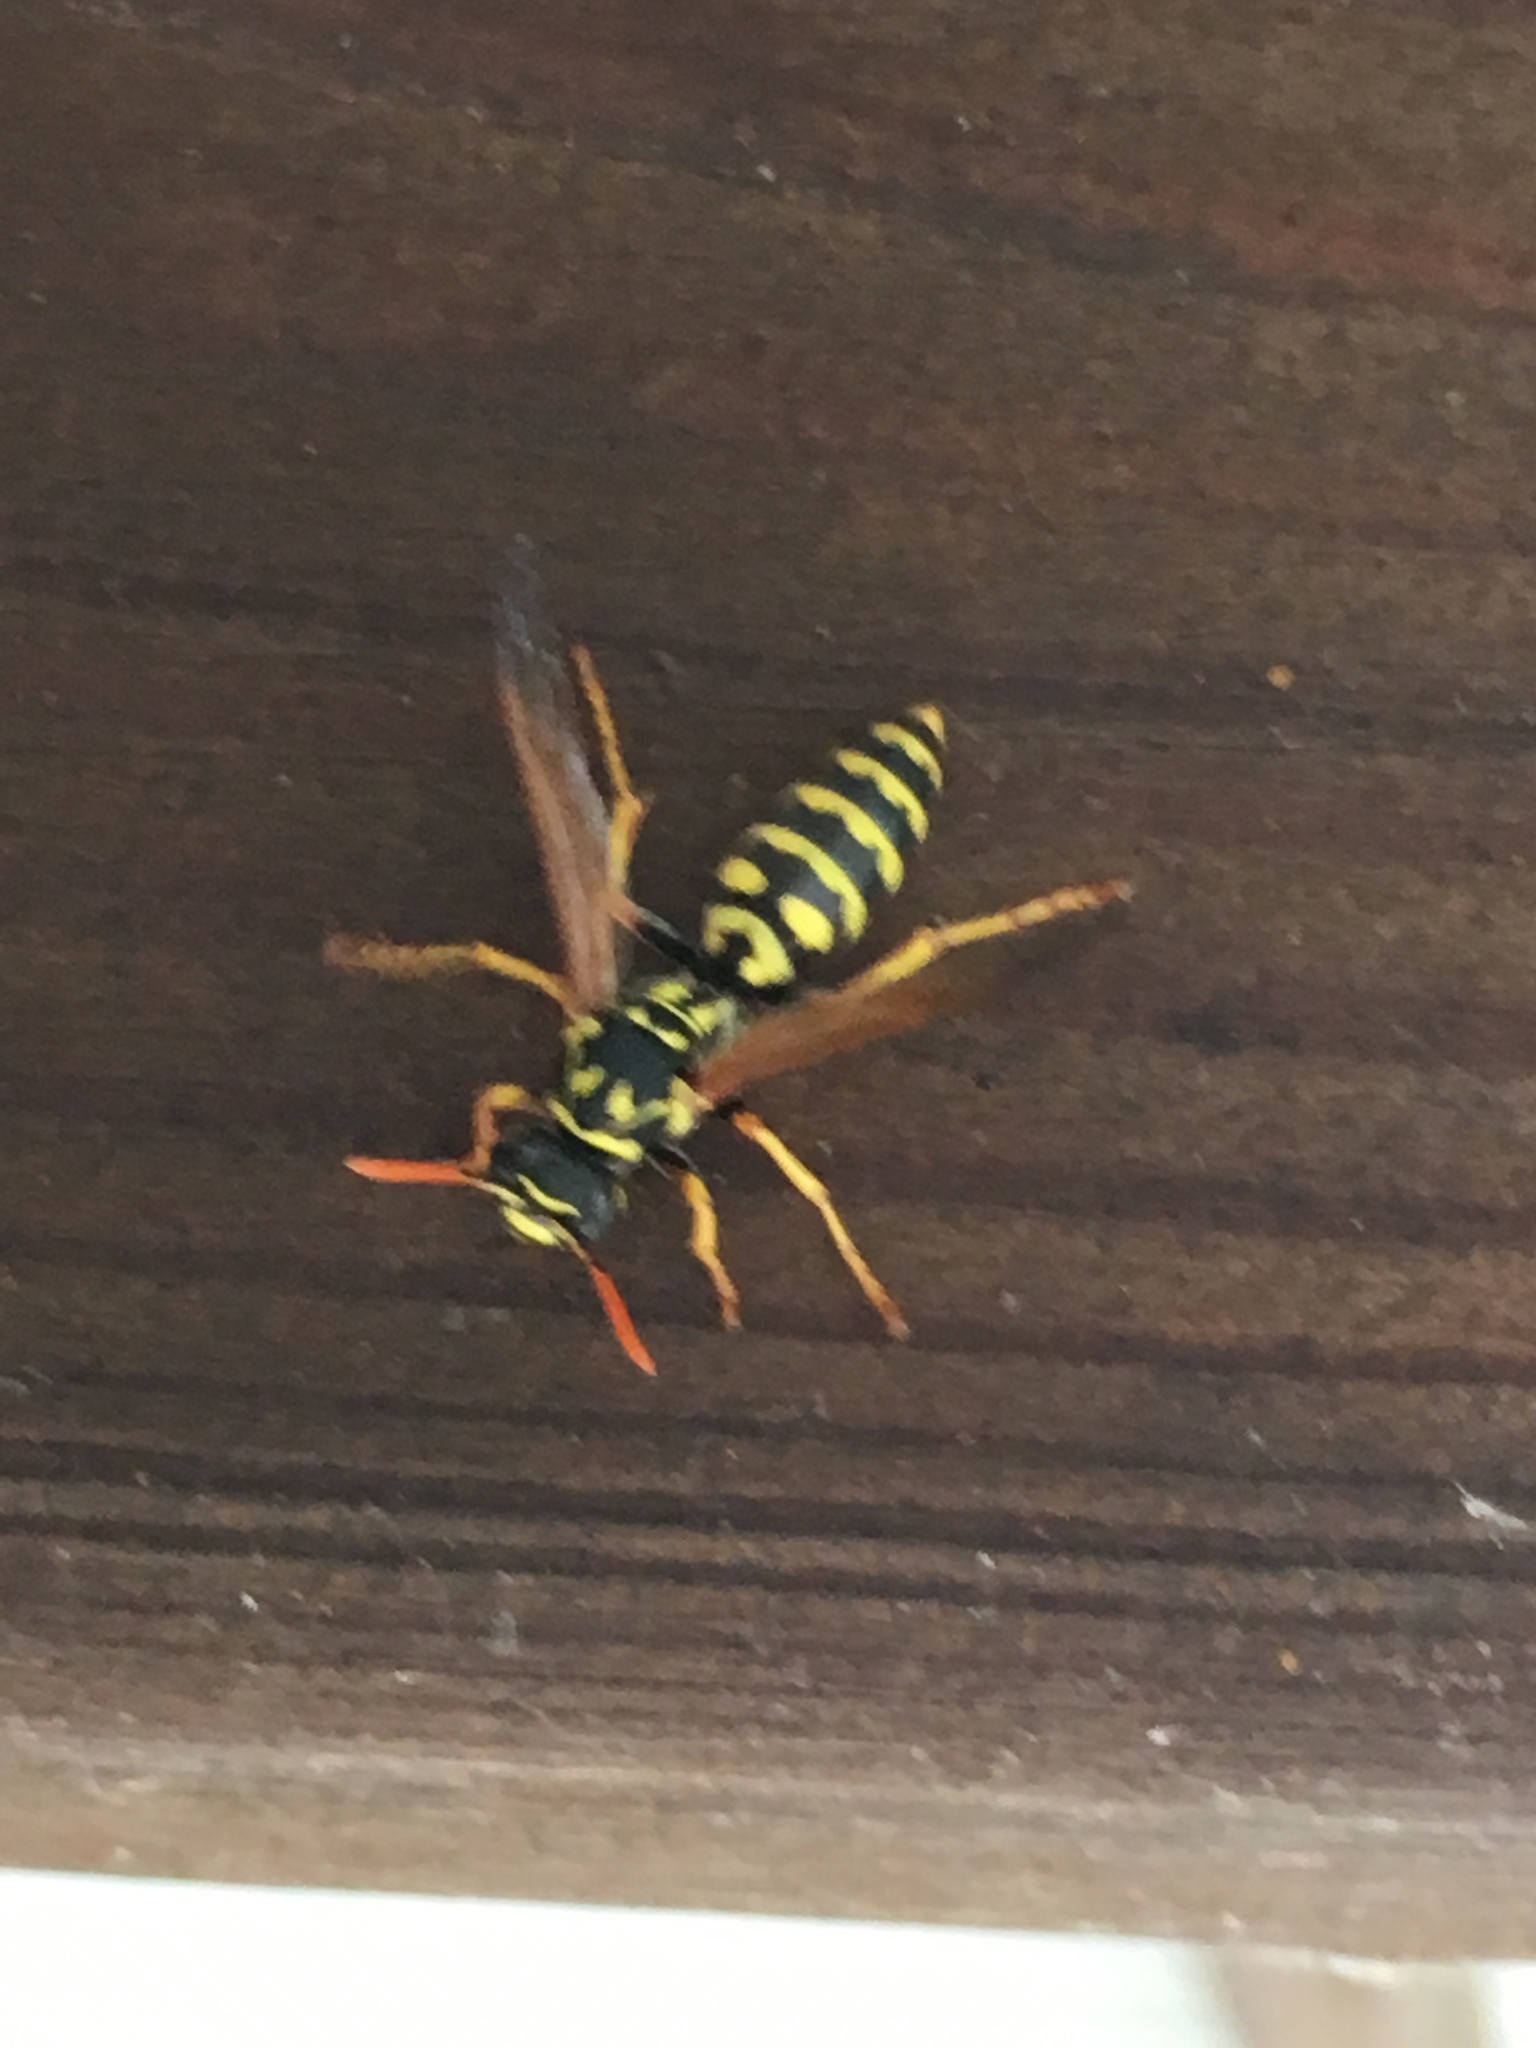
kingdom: Animalia
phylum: Arthropoda
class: Insecta
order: Hymenoptera
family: Eumenidae
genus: Polistes
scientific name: Polistes dominula
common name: Paper wasp
